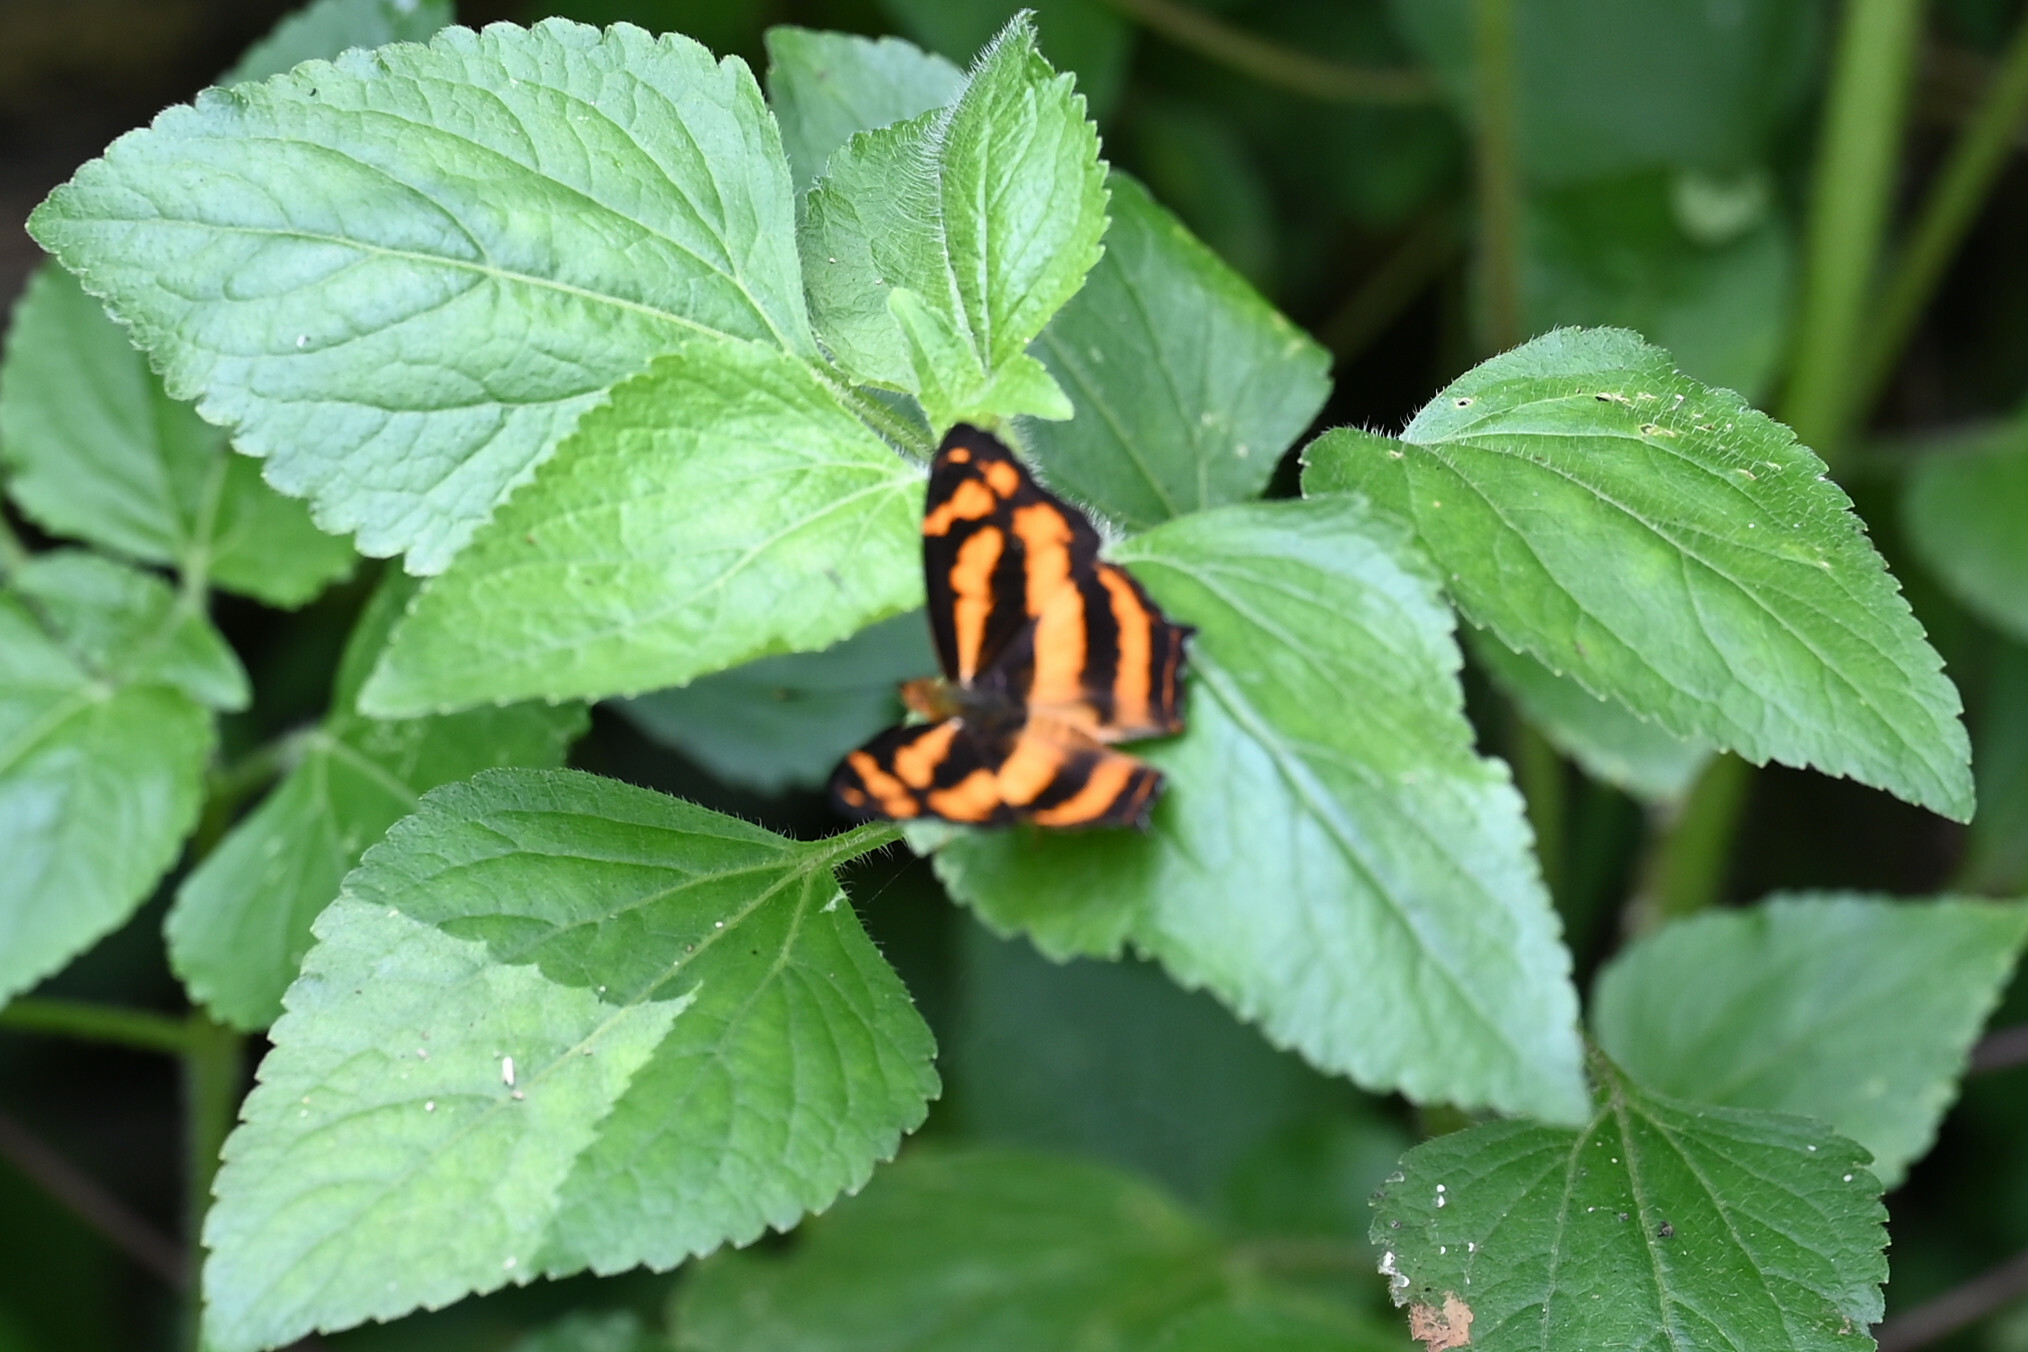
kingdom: Animalia
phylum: Arthropoda
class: Insecta
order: Lepidoptera
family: Nymphalidae
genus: Symbrenthia
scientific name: Symbrenthia hypselis
